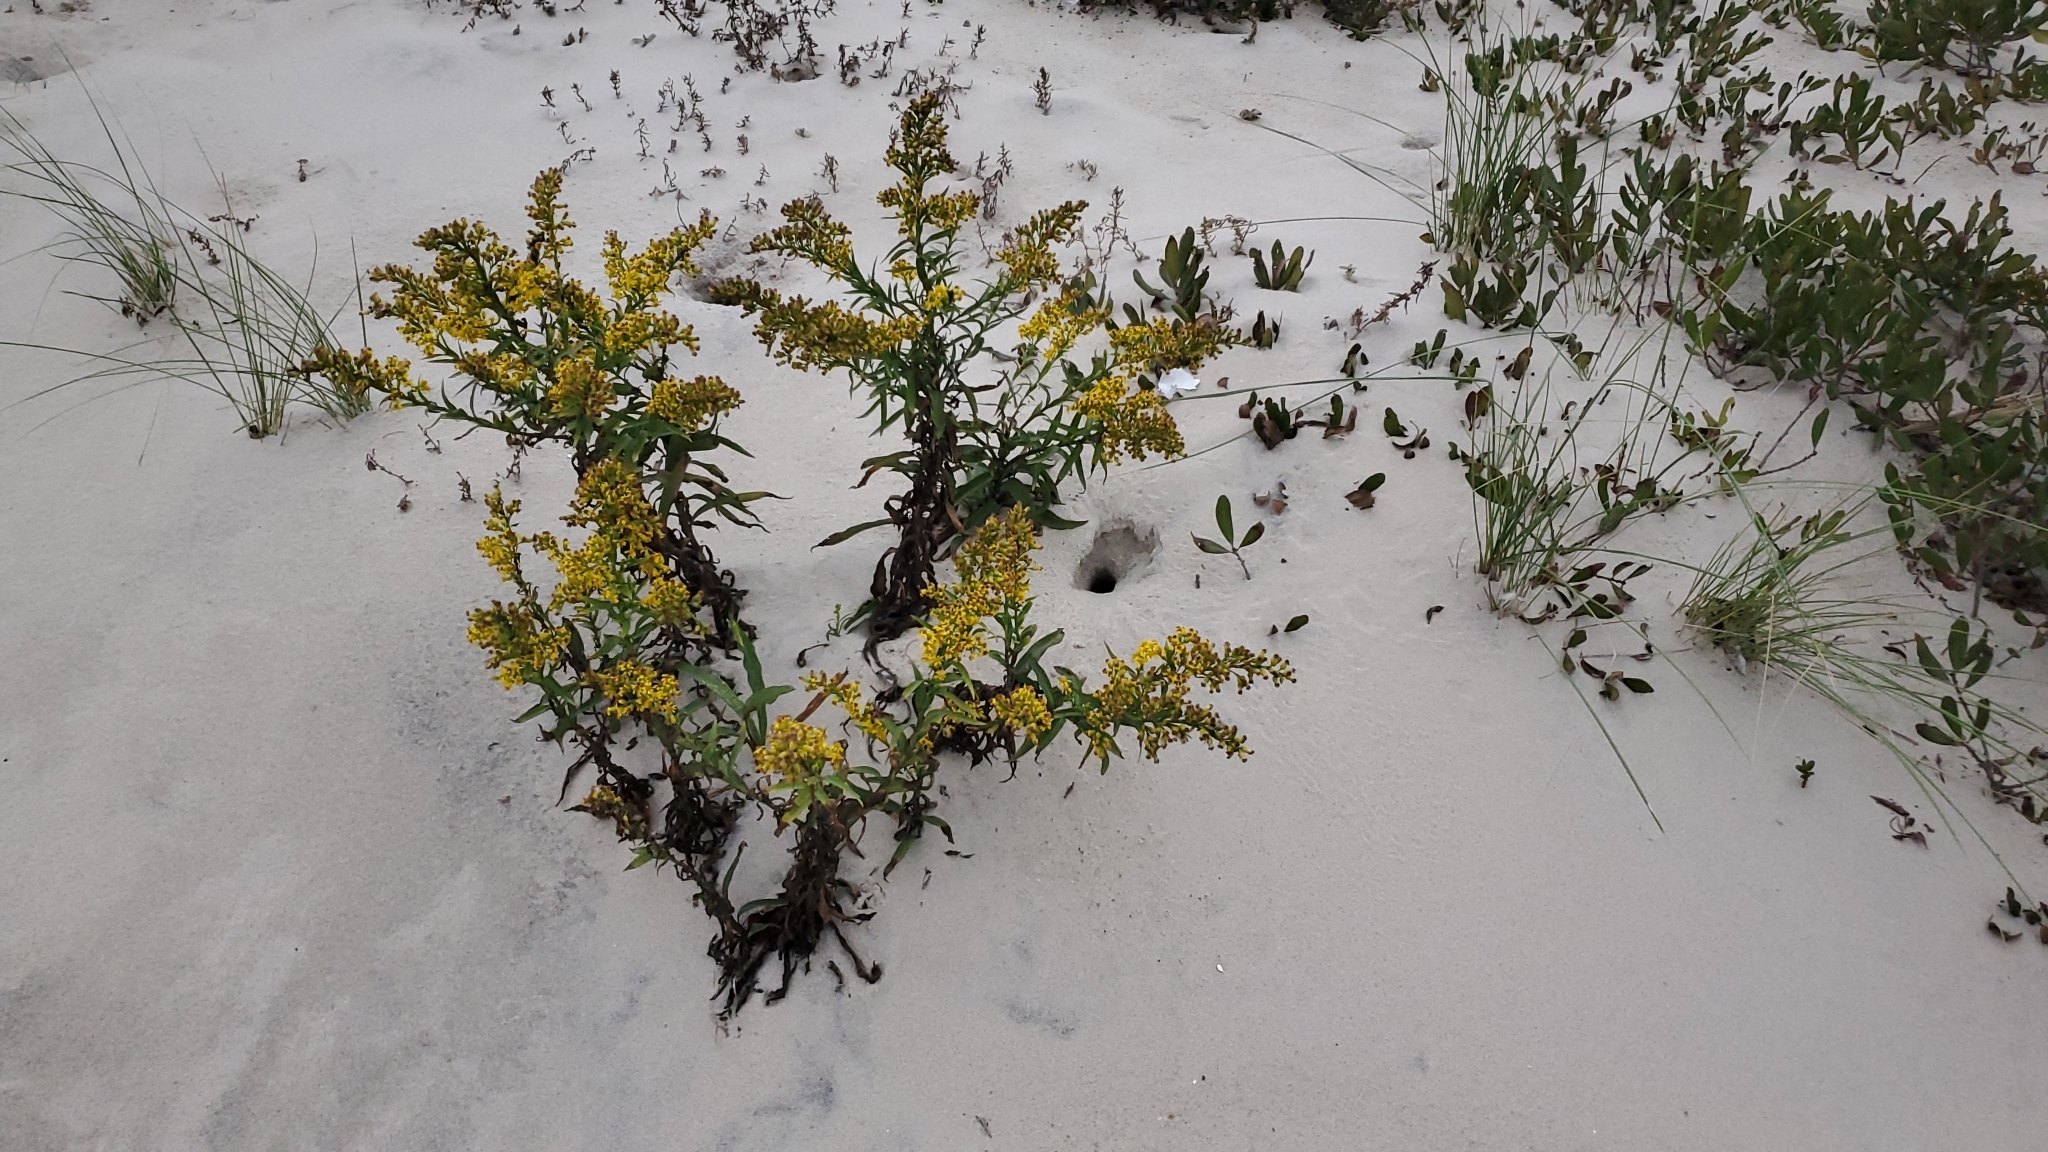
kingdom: Plantae
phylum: Tracheophyta
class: Magnoliopsida
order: Asterales
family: Asteraceae
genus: Solidago
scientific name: Solidago sempervirens
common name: Salt-marsh goldenrod
